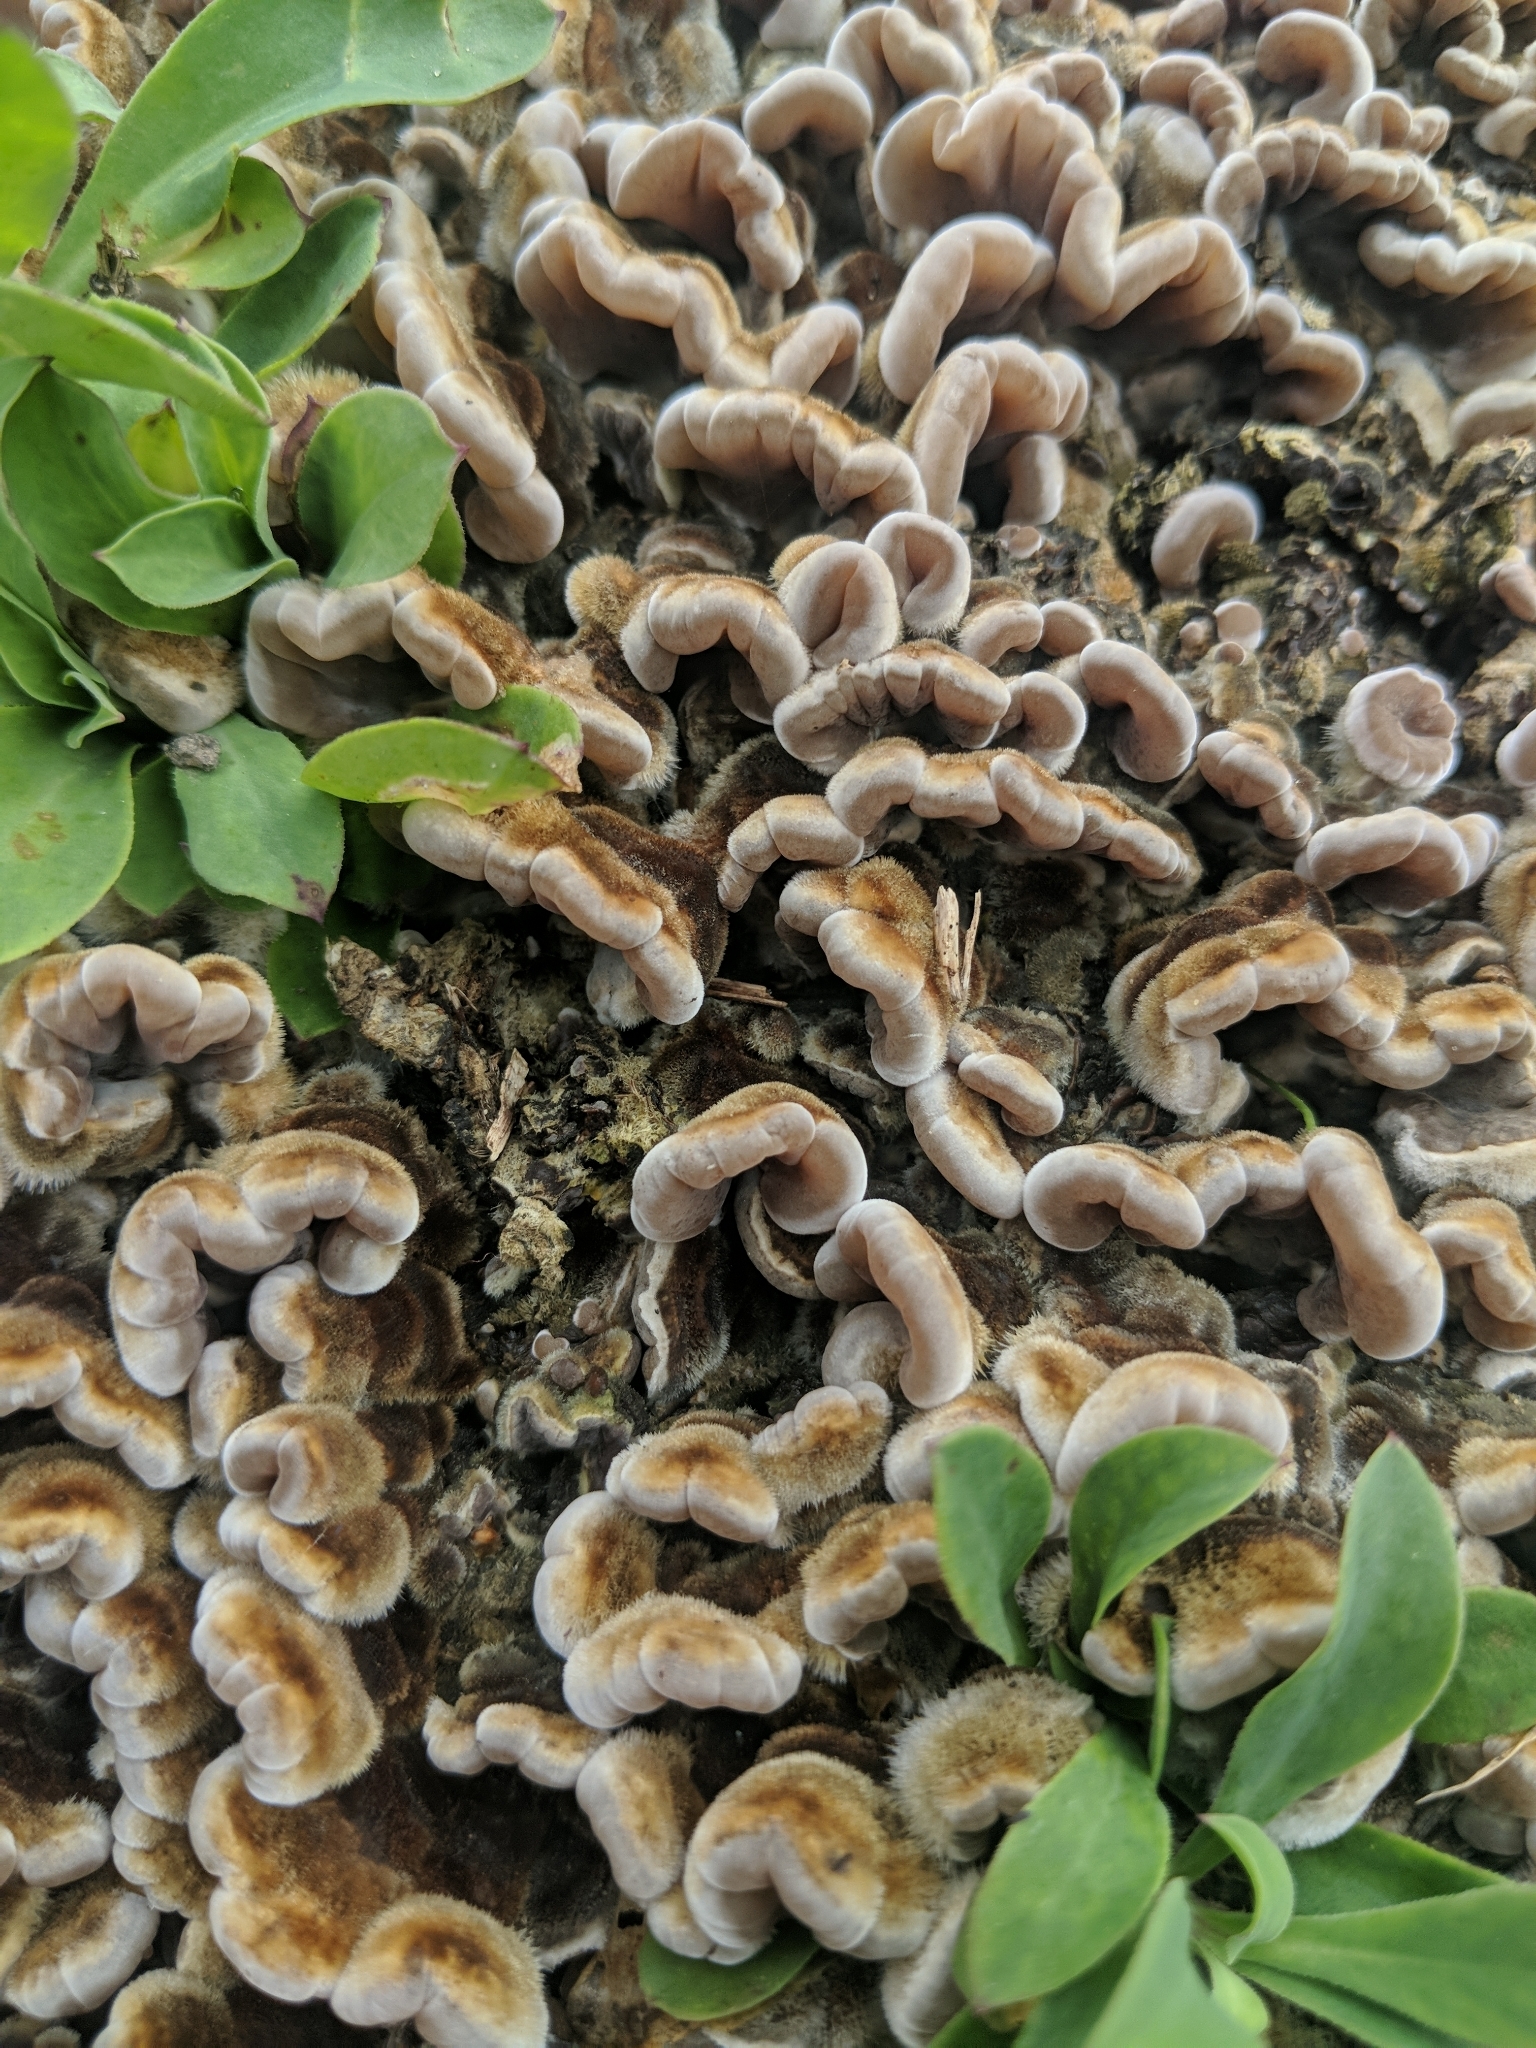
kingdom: Fungi
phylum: Basidiomycota
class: Agaricomycetes
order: Auriculariales
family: Auriculariaceae
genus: Auricularia
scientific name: Auricularia mesenterica
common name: Tripe fungus
